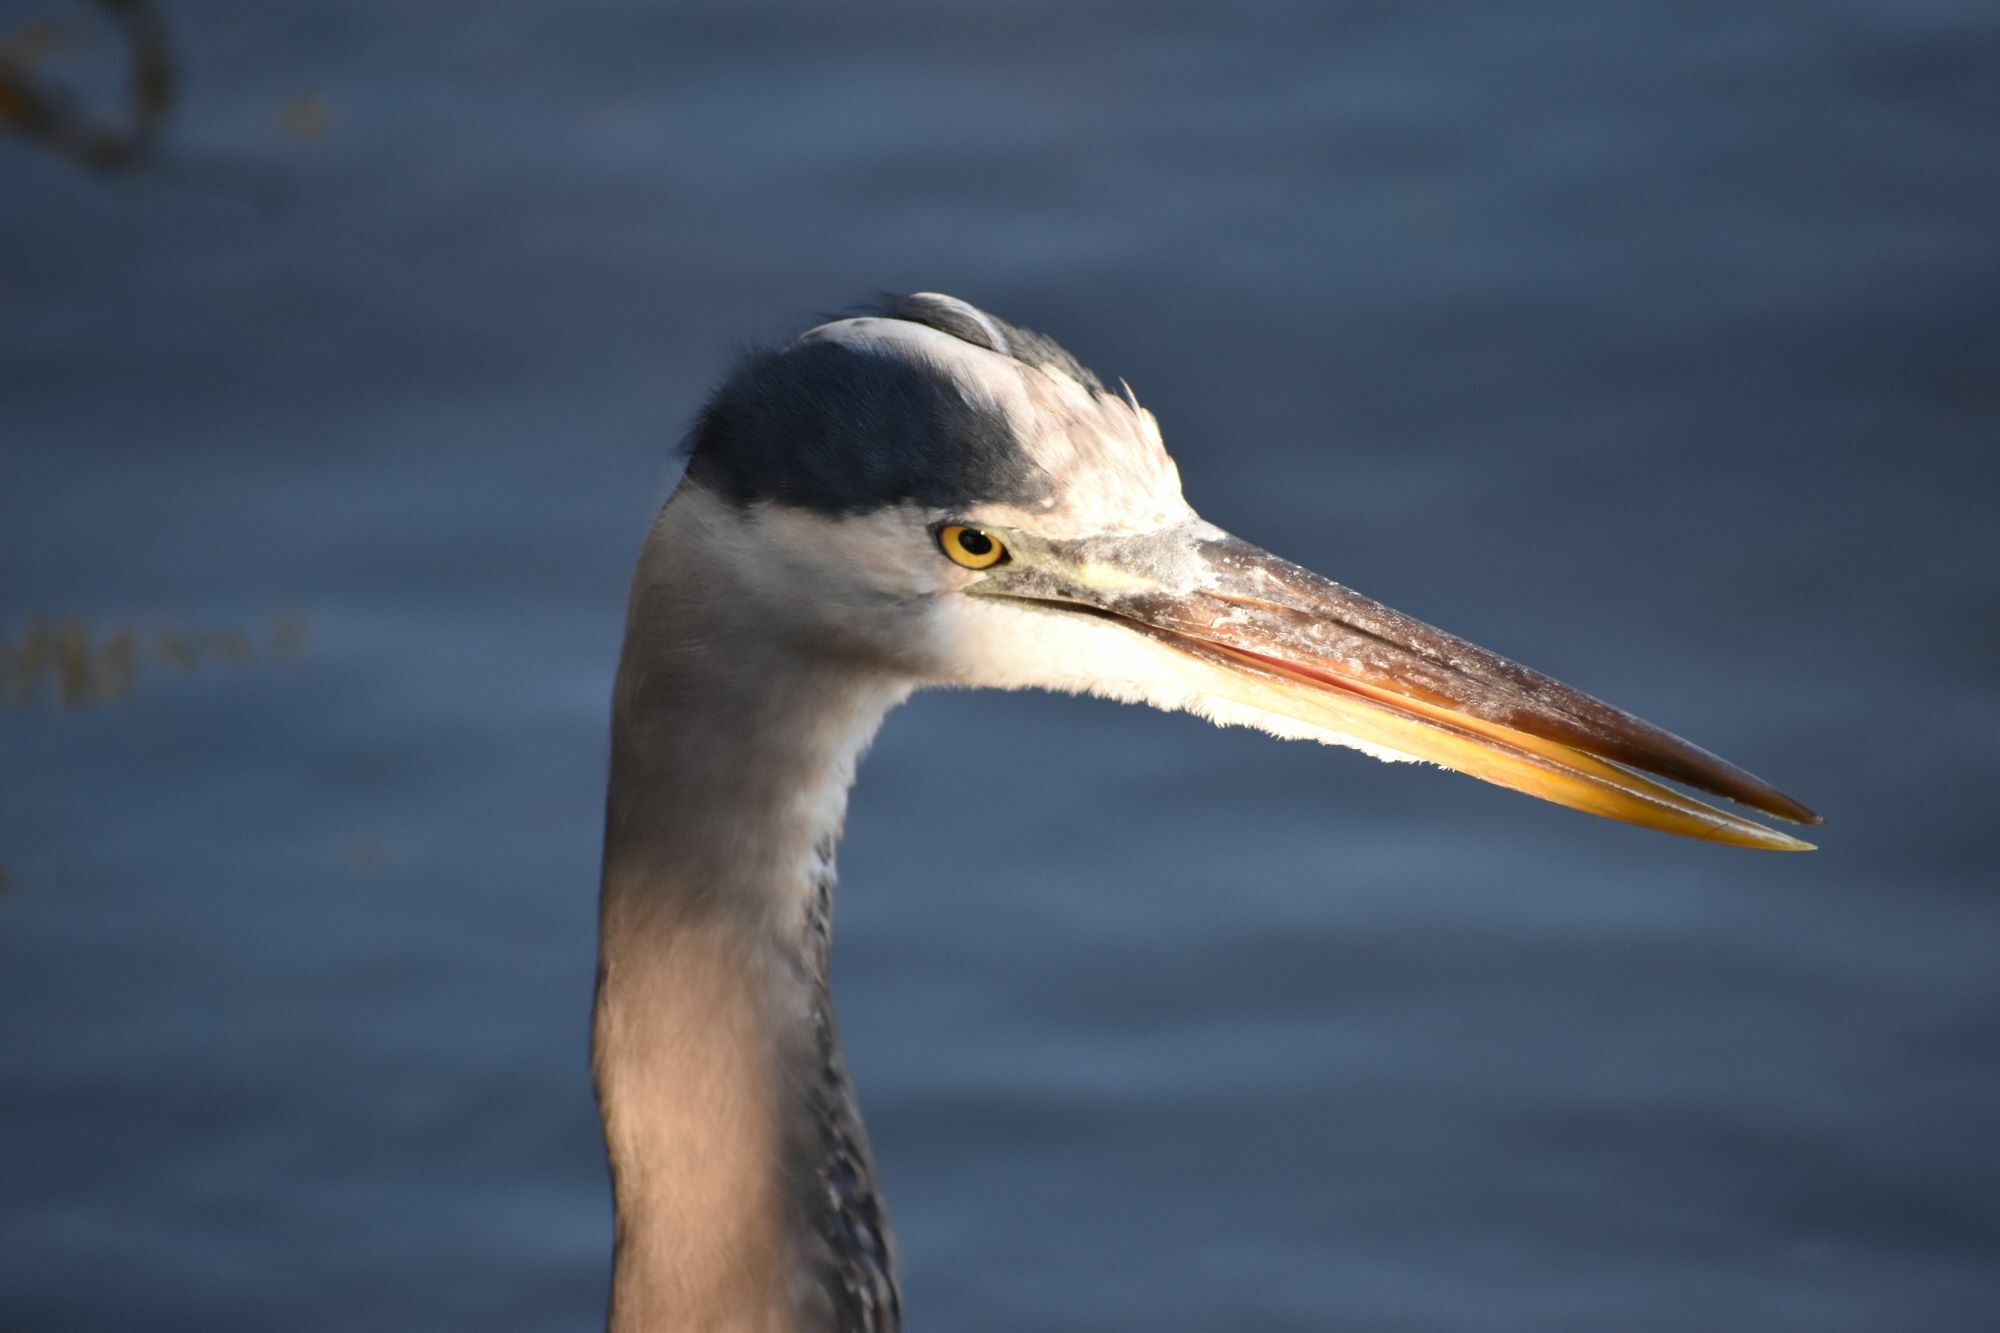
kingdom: Animalia
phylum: Chordata
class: Aves
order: Pelecaniformes
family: Ardeidae
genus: Ardea
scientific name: Ardea herodias
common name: Great blue heron
